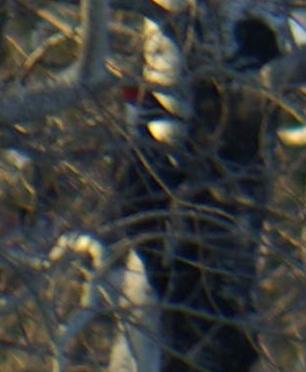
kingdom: Animalia
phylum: Chordata
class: Aves
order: Piciformes
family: Picidae
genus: Dryocopus
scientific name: Dryocopus pileatus
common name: Pileated woodpecker
